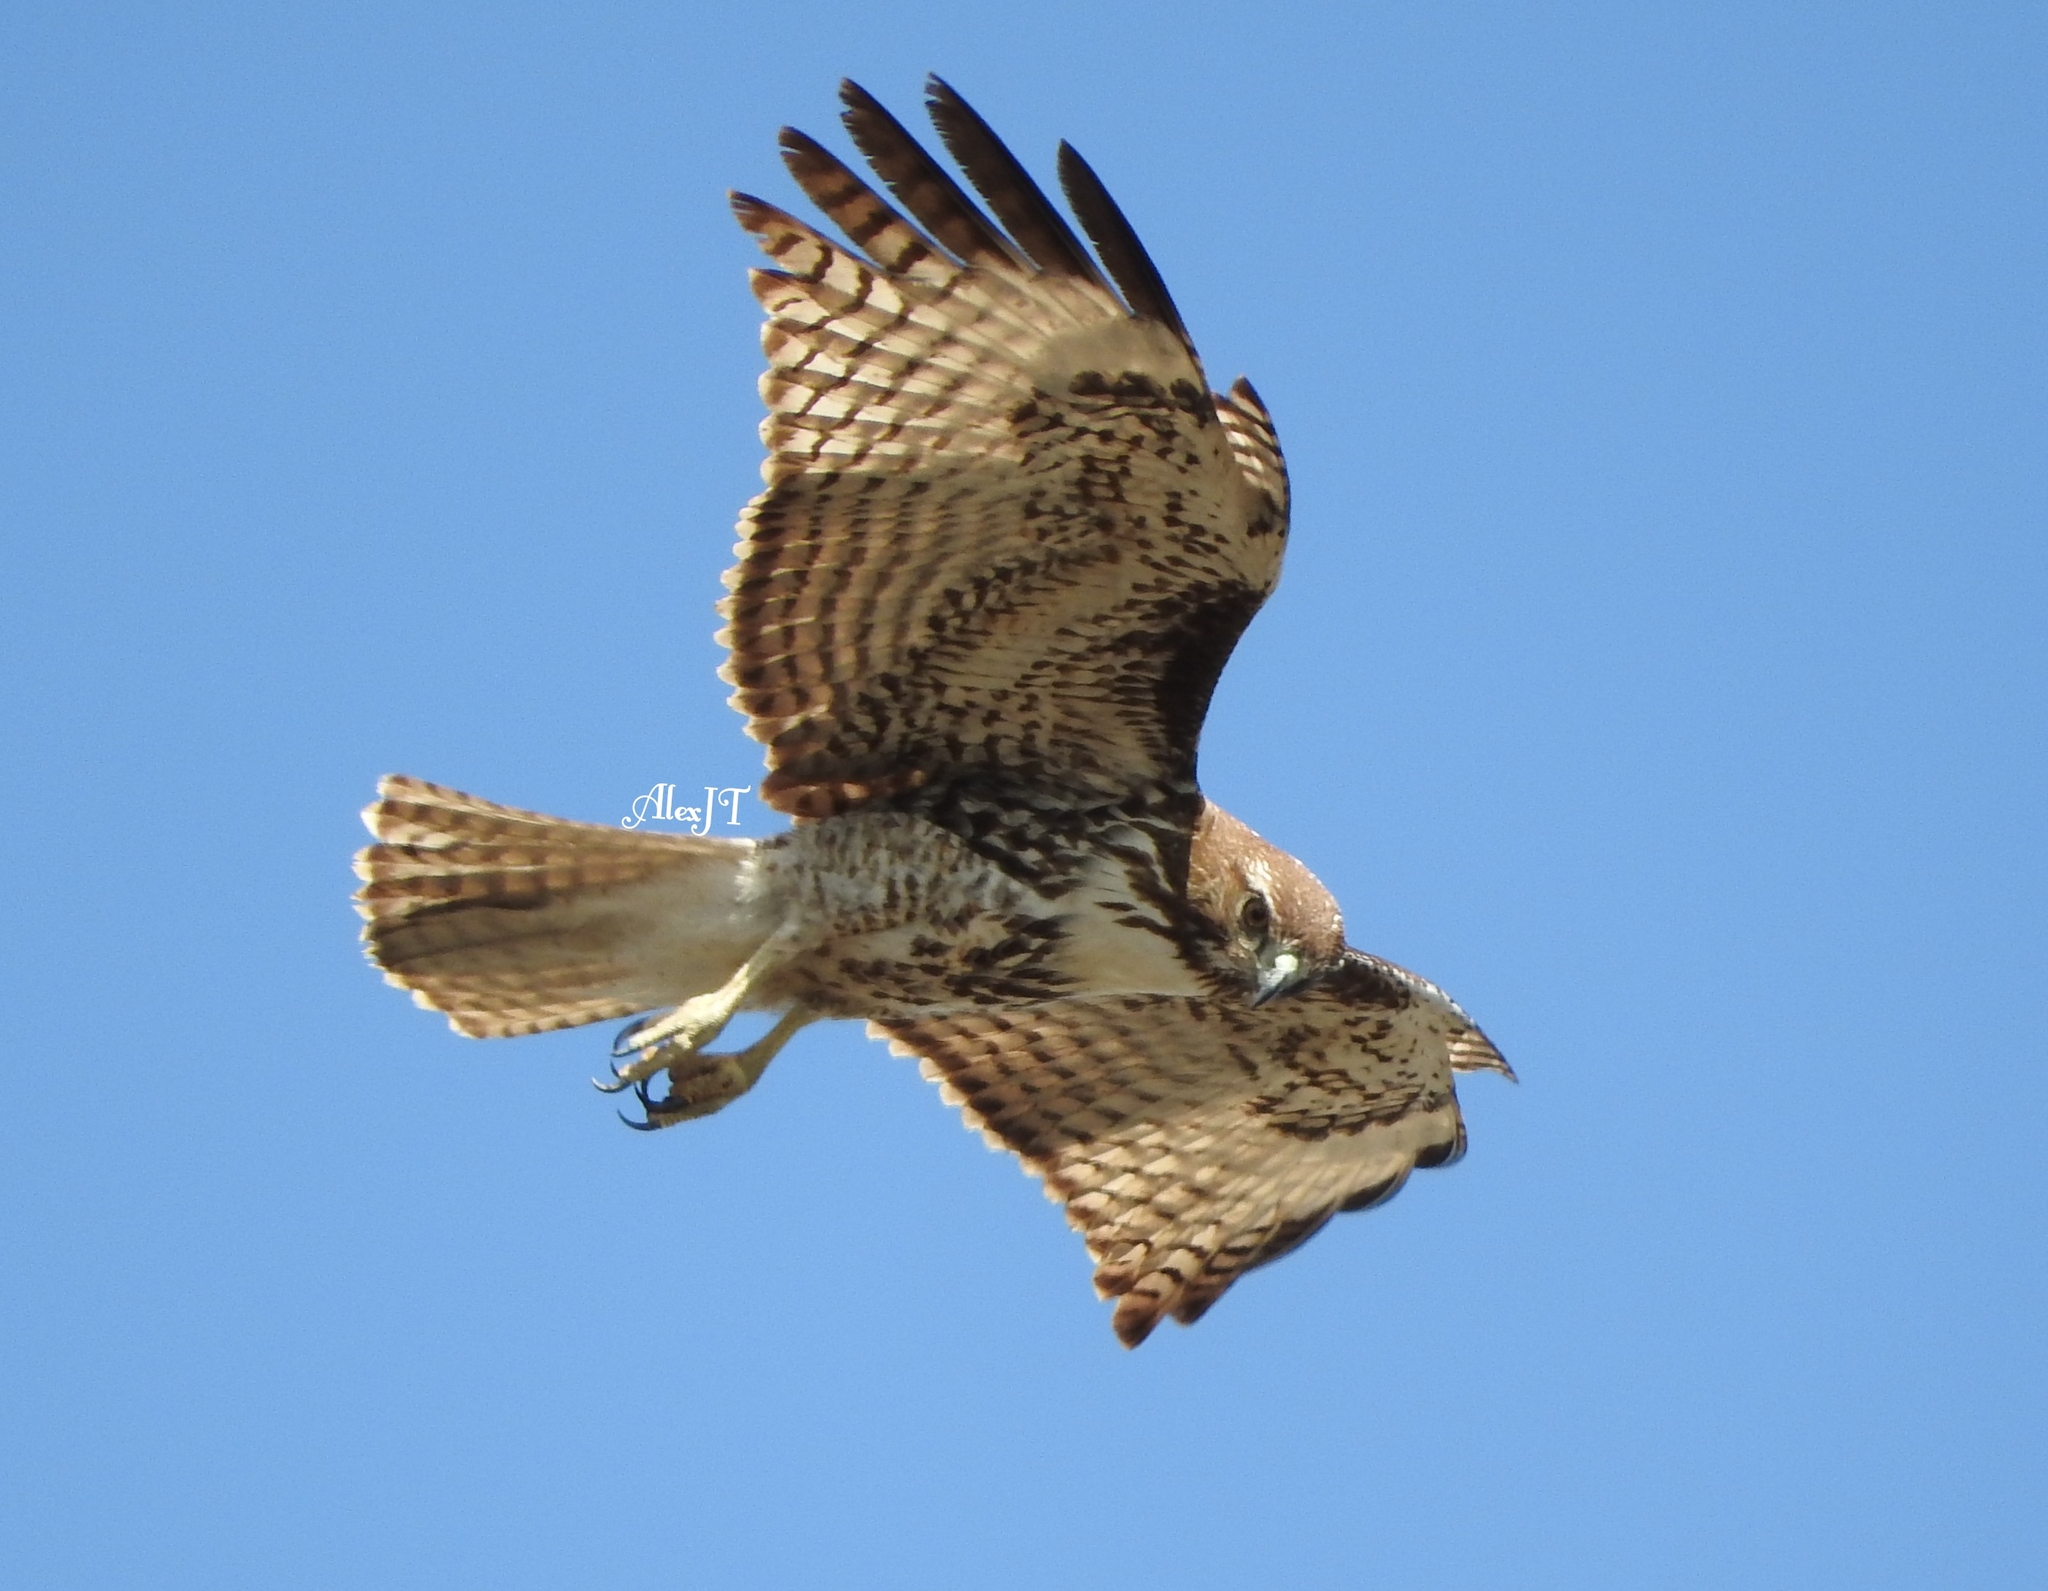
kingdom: Animalia
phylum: Chordata
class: Aves
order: Accipitriformes
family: Accipitridae
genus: Buteo
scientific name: Buteo jamaicensis
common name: Red-tailed hawk
